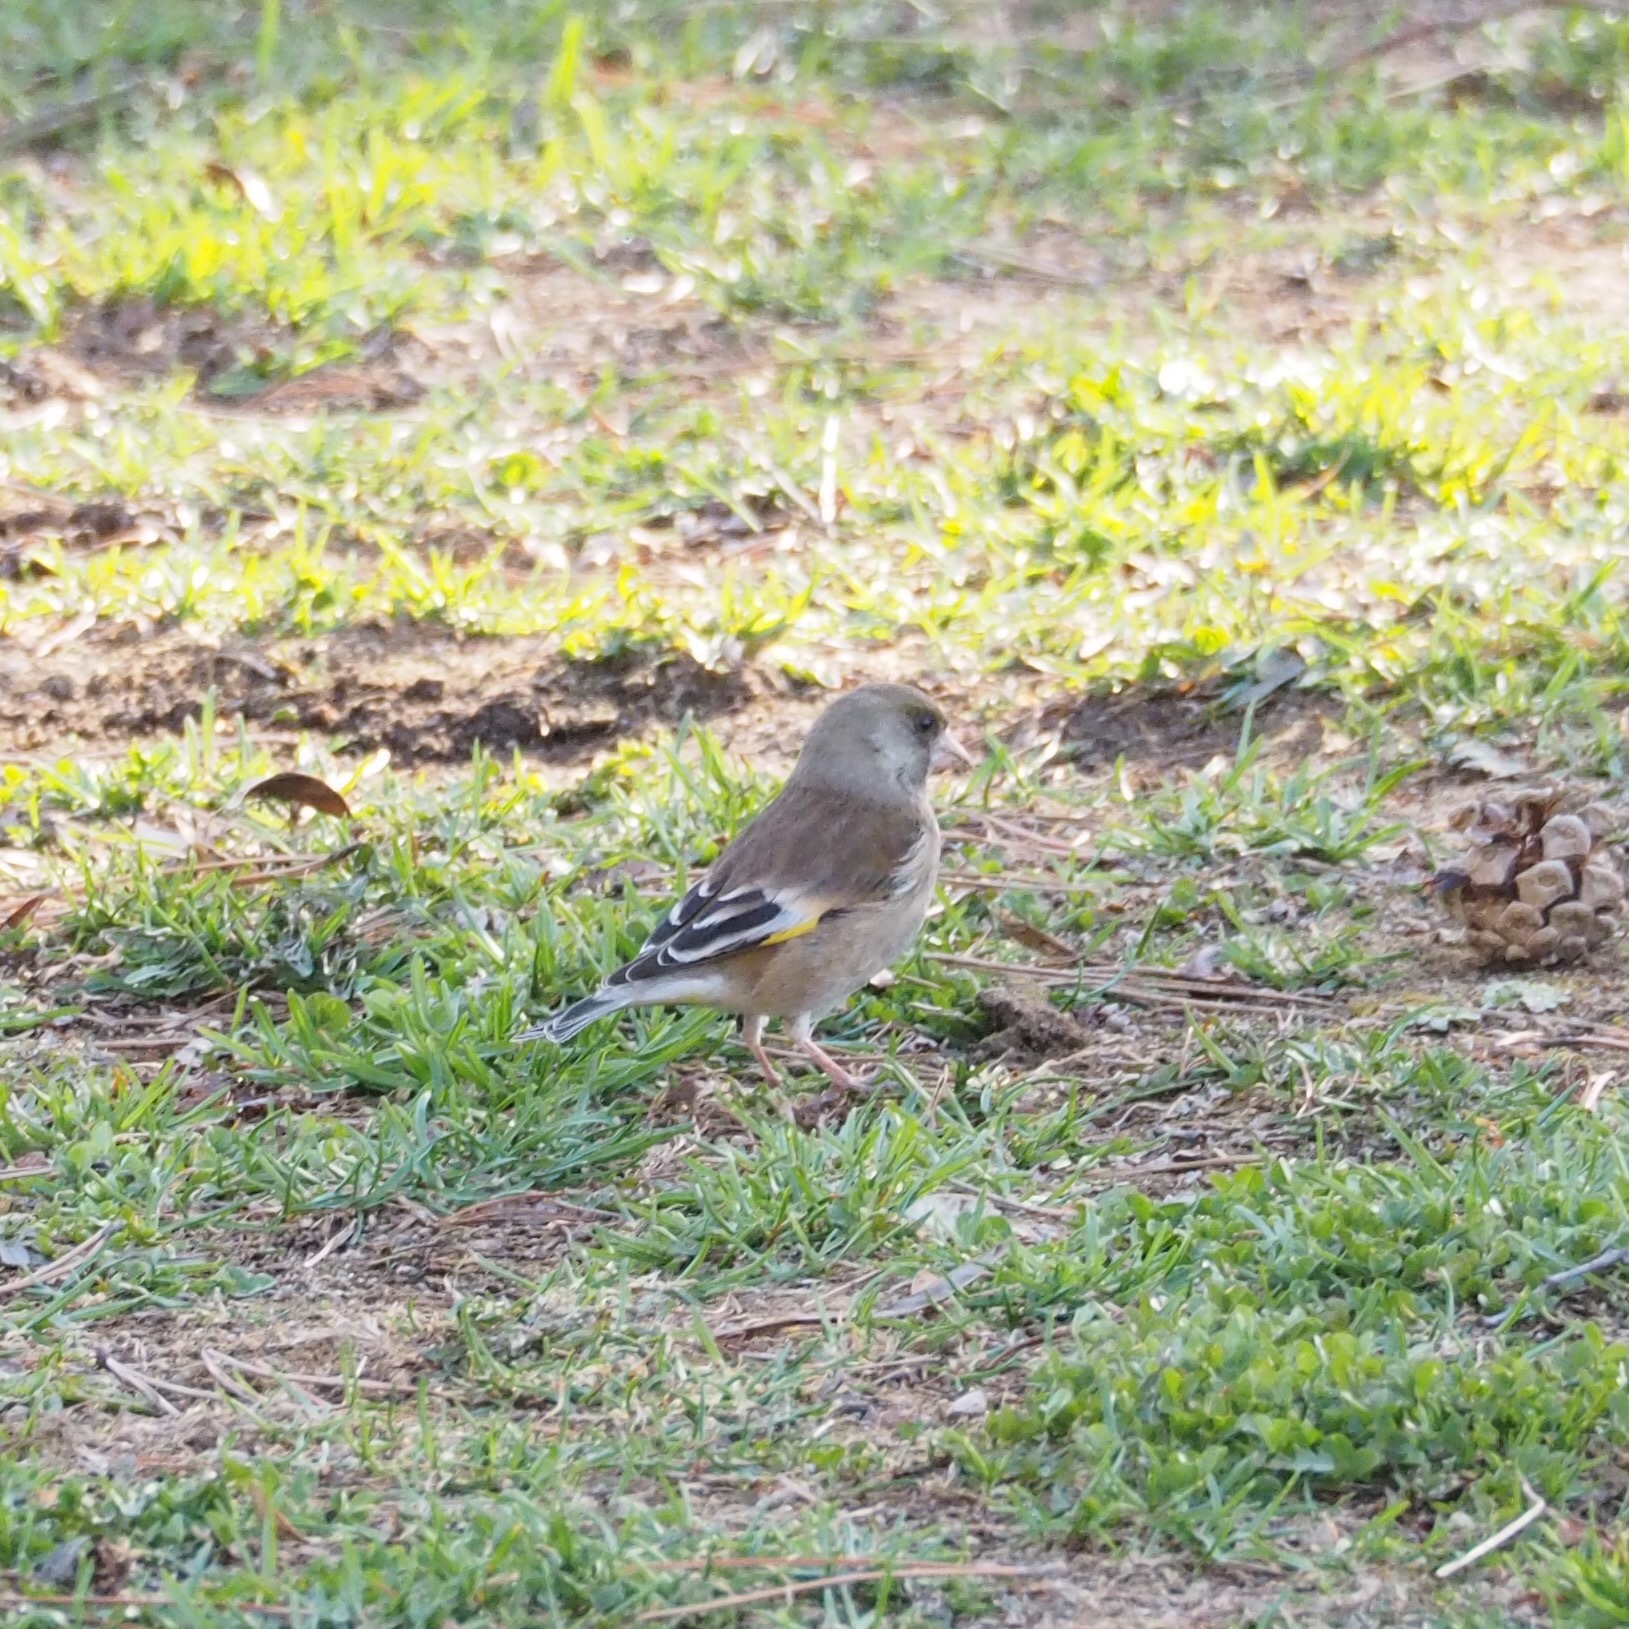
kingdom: Plantae
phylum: Tracheophyta
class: Liliopsida
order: Poales
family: Poaceae
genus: Chloris
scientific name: Chloris sinica
